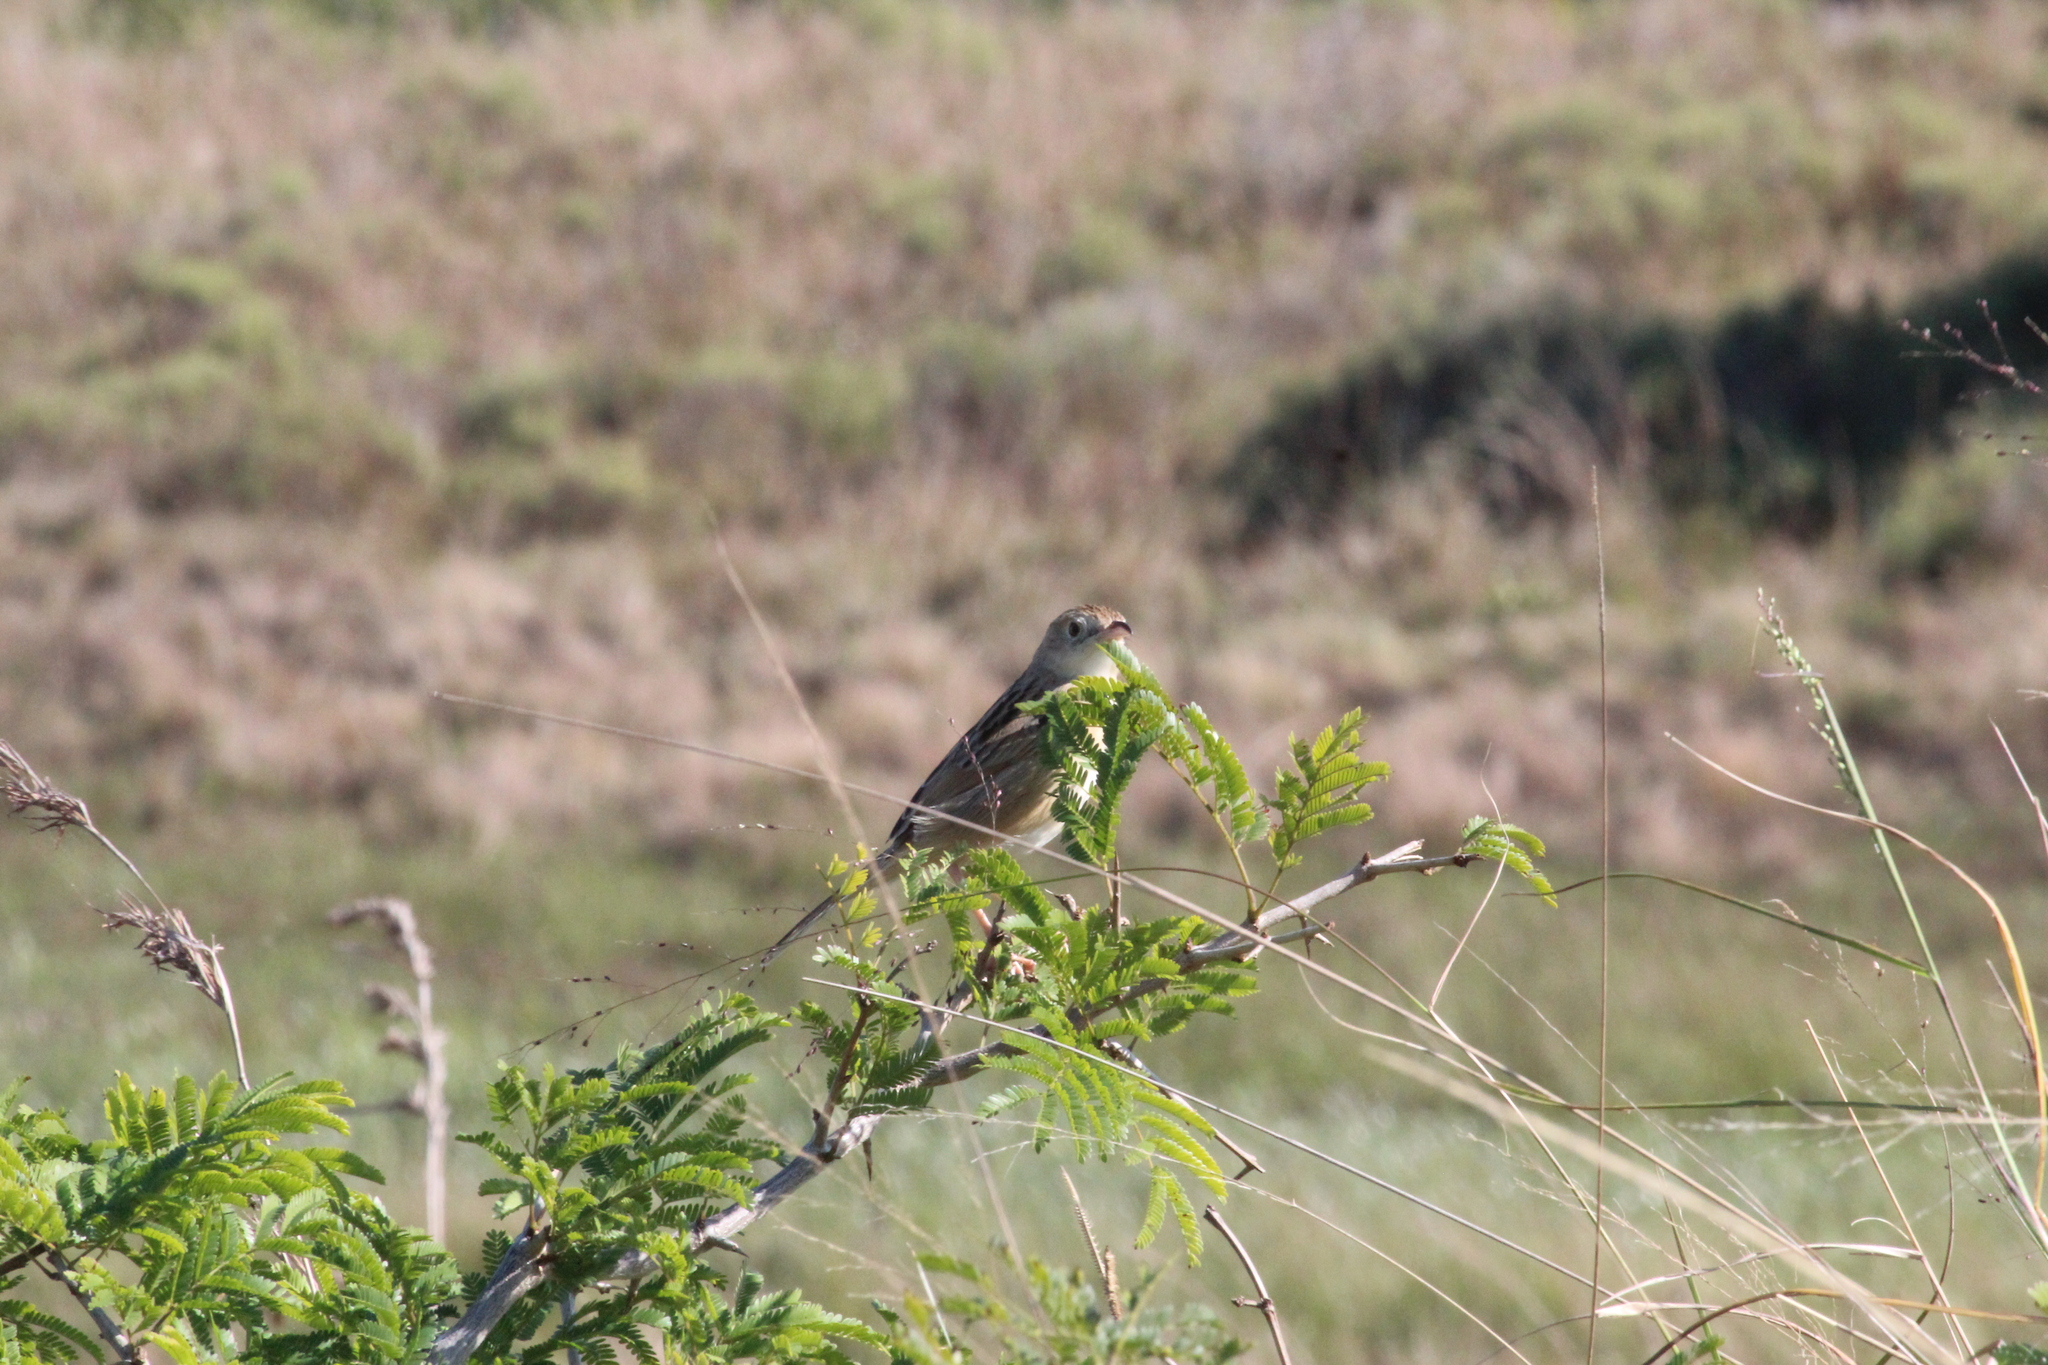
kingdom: Animalia
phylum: Chordata
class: Aves
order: Passeriformes
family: Cisticolidae
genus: Cisticola
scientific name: Cisticola natalensis
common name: Croaking cisticola
